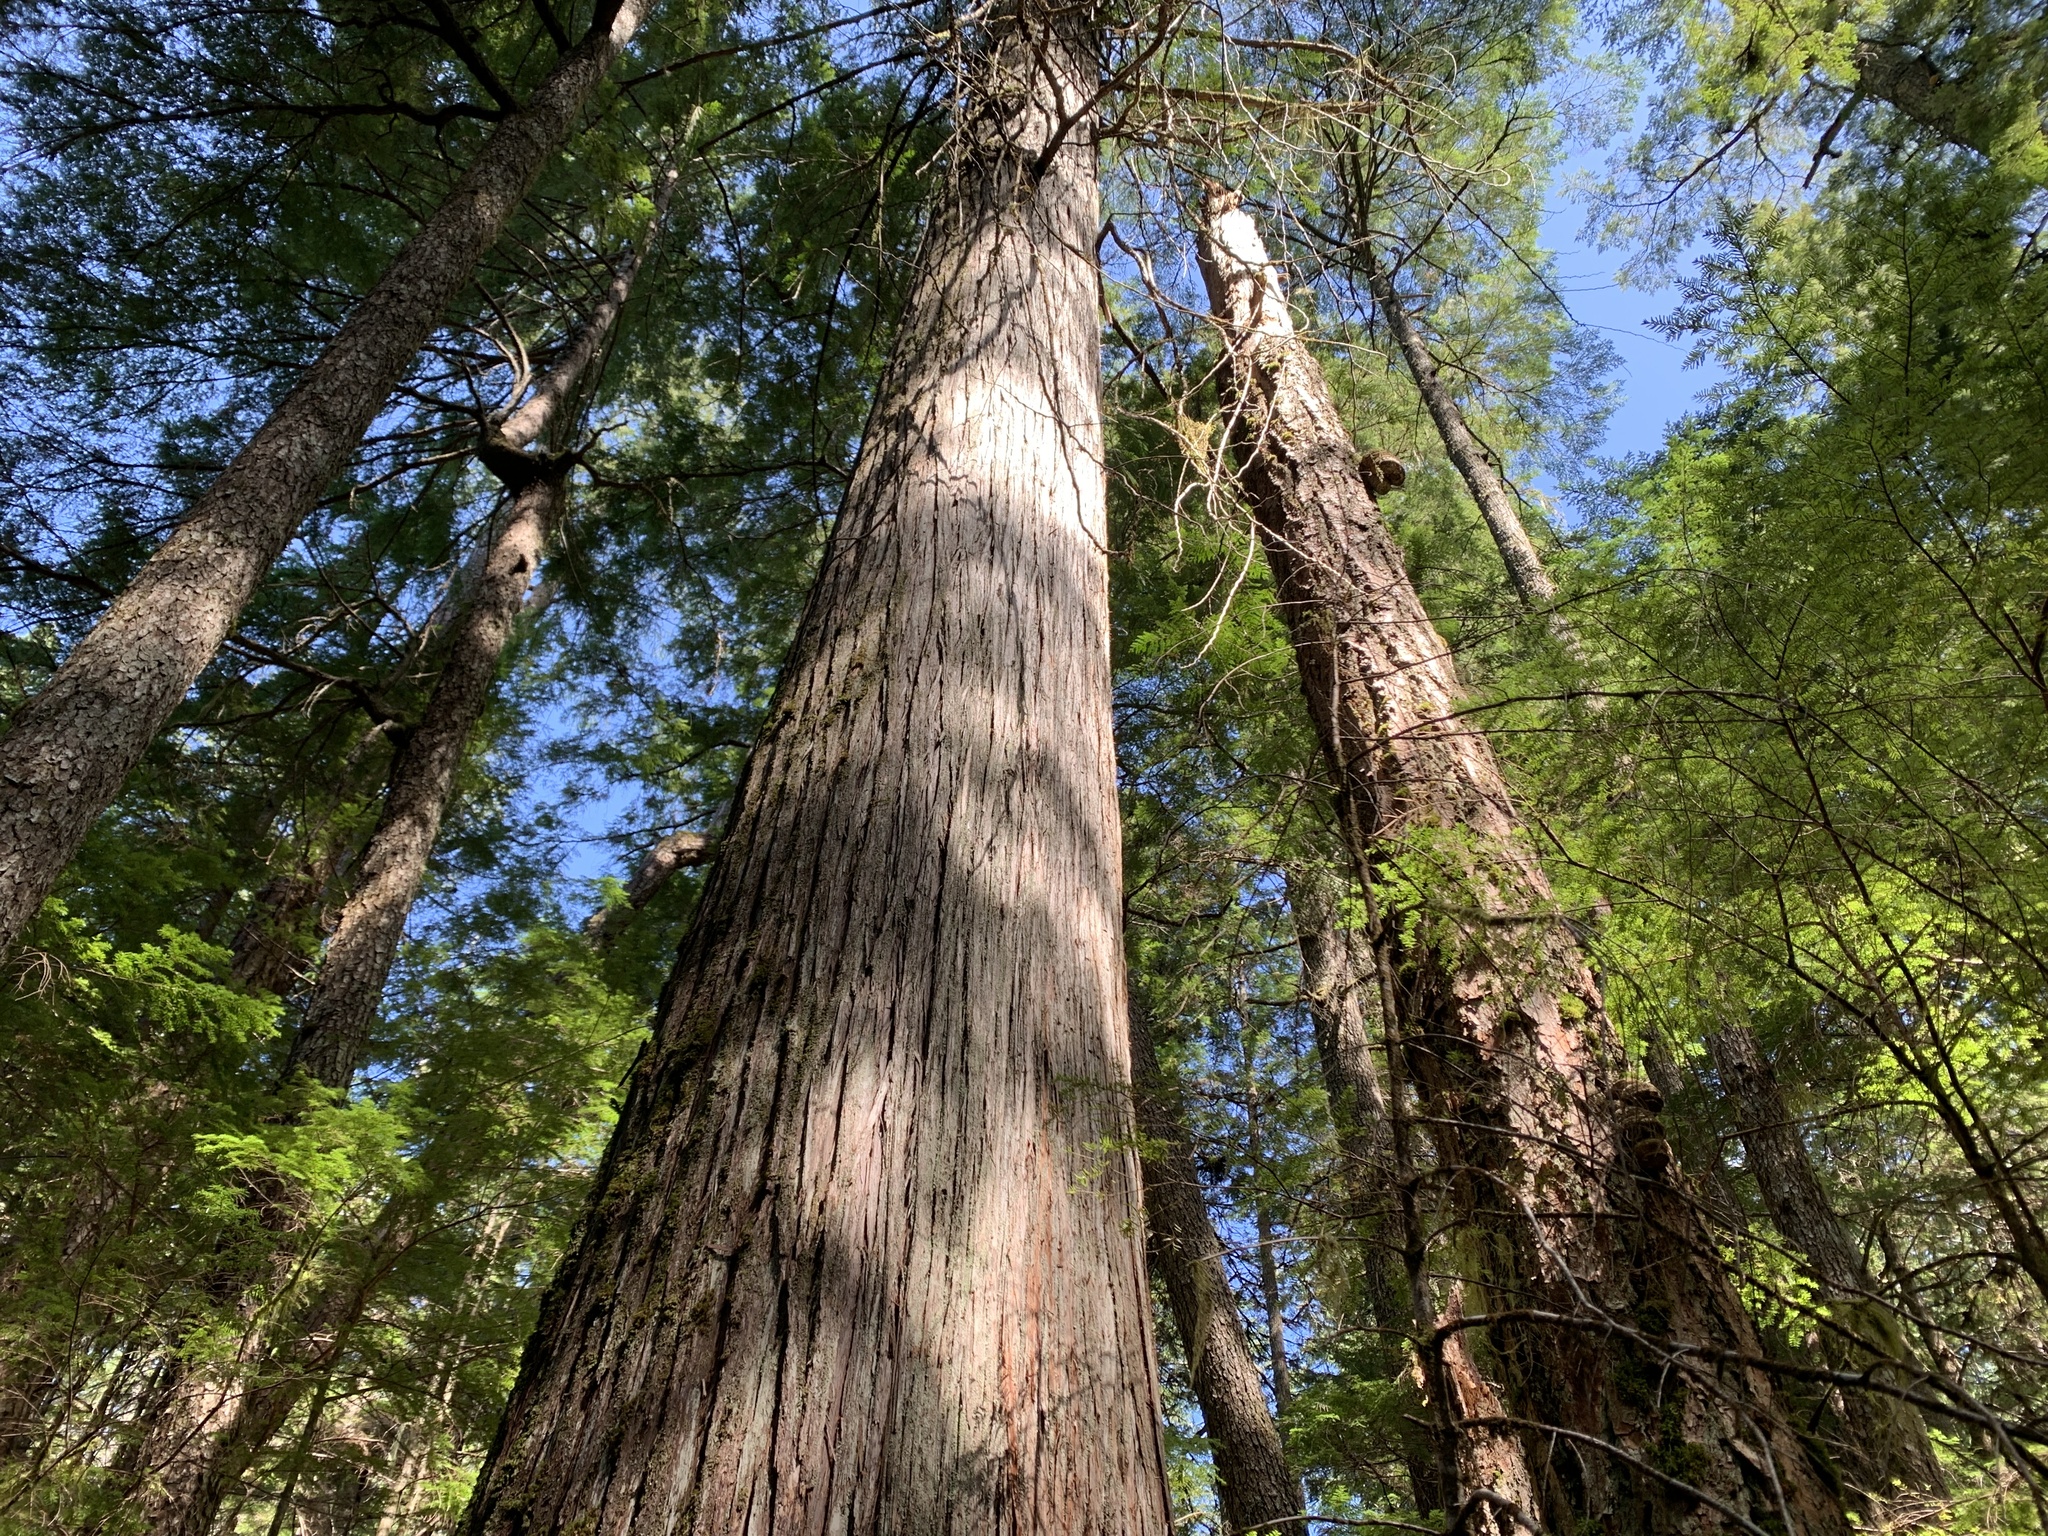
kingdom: Plantae
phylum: Tracheophyta
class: Pinopsida
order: Pinales
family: Cupressaceae
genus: Thuja
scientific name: Thuja plicata
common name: Western red-cedar
